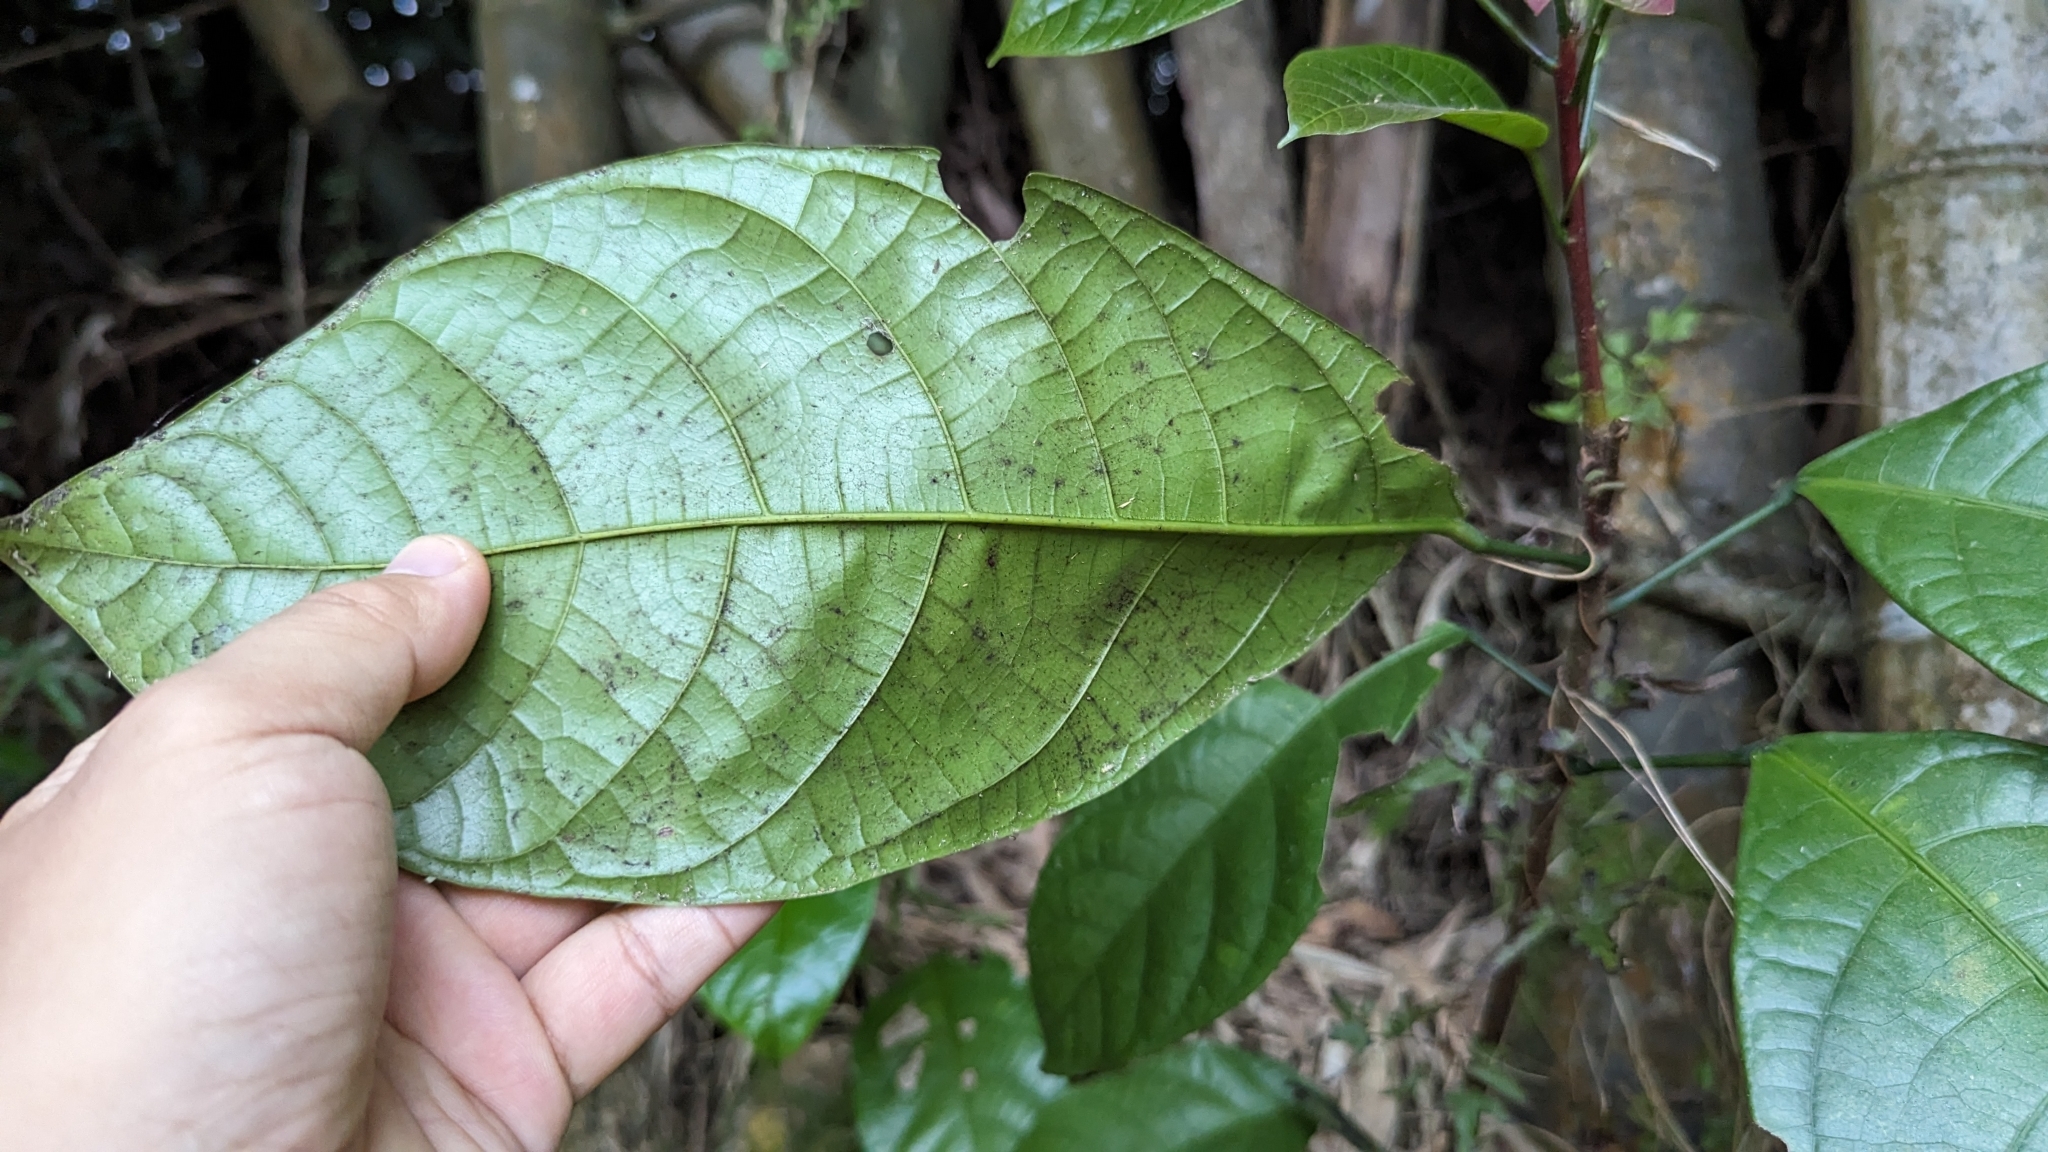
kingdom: Plantae
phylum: Tracheophyta
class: Magnoliopsida
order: Malvales
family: Malvaceae
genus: Sterculia
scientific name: Sterculia monosperma
